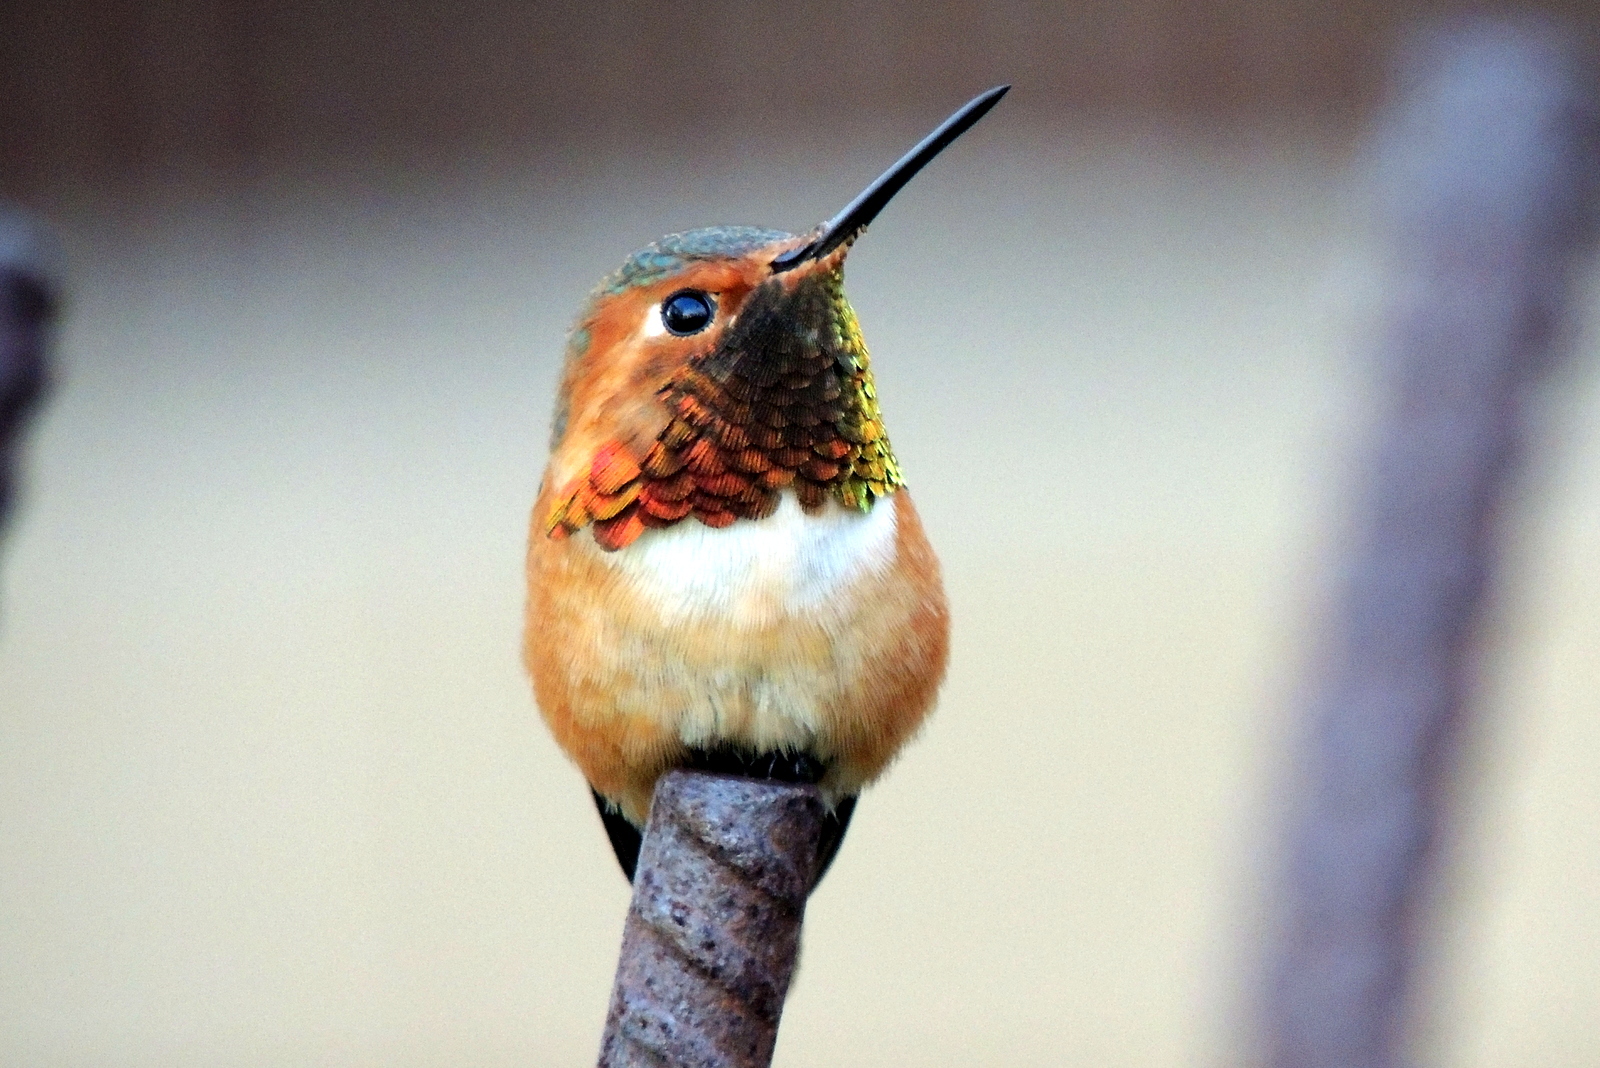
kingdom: Animalia
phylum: Chordata
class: Aves
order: Apodiformes
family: Trochilidae
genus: Selasphorus
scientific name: Selasphorus sasin
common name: Allen's hummingbird
